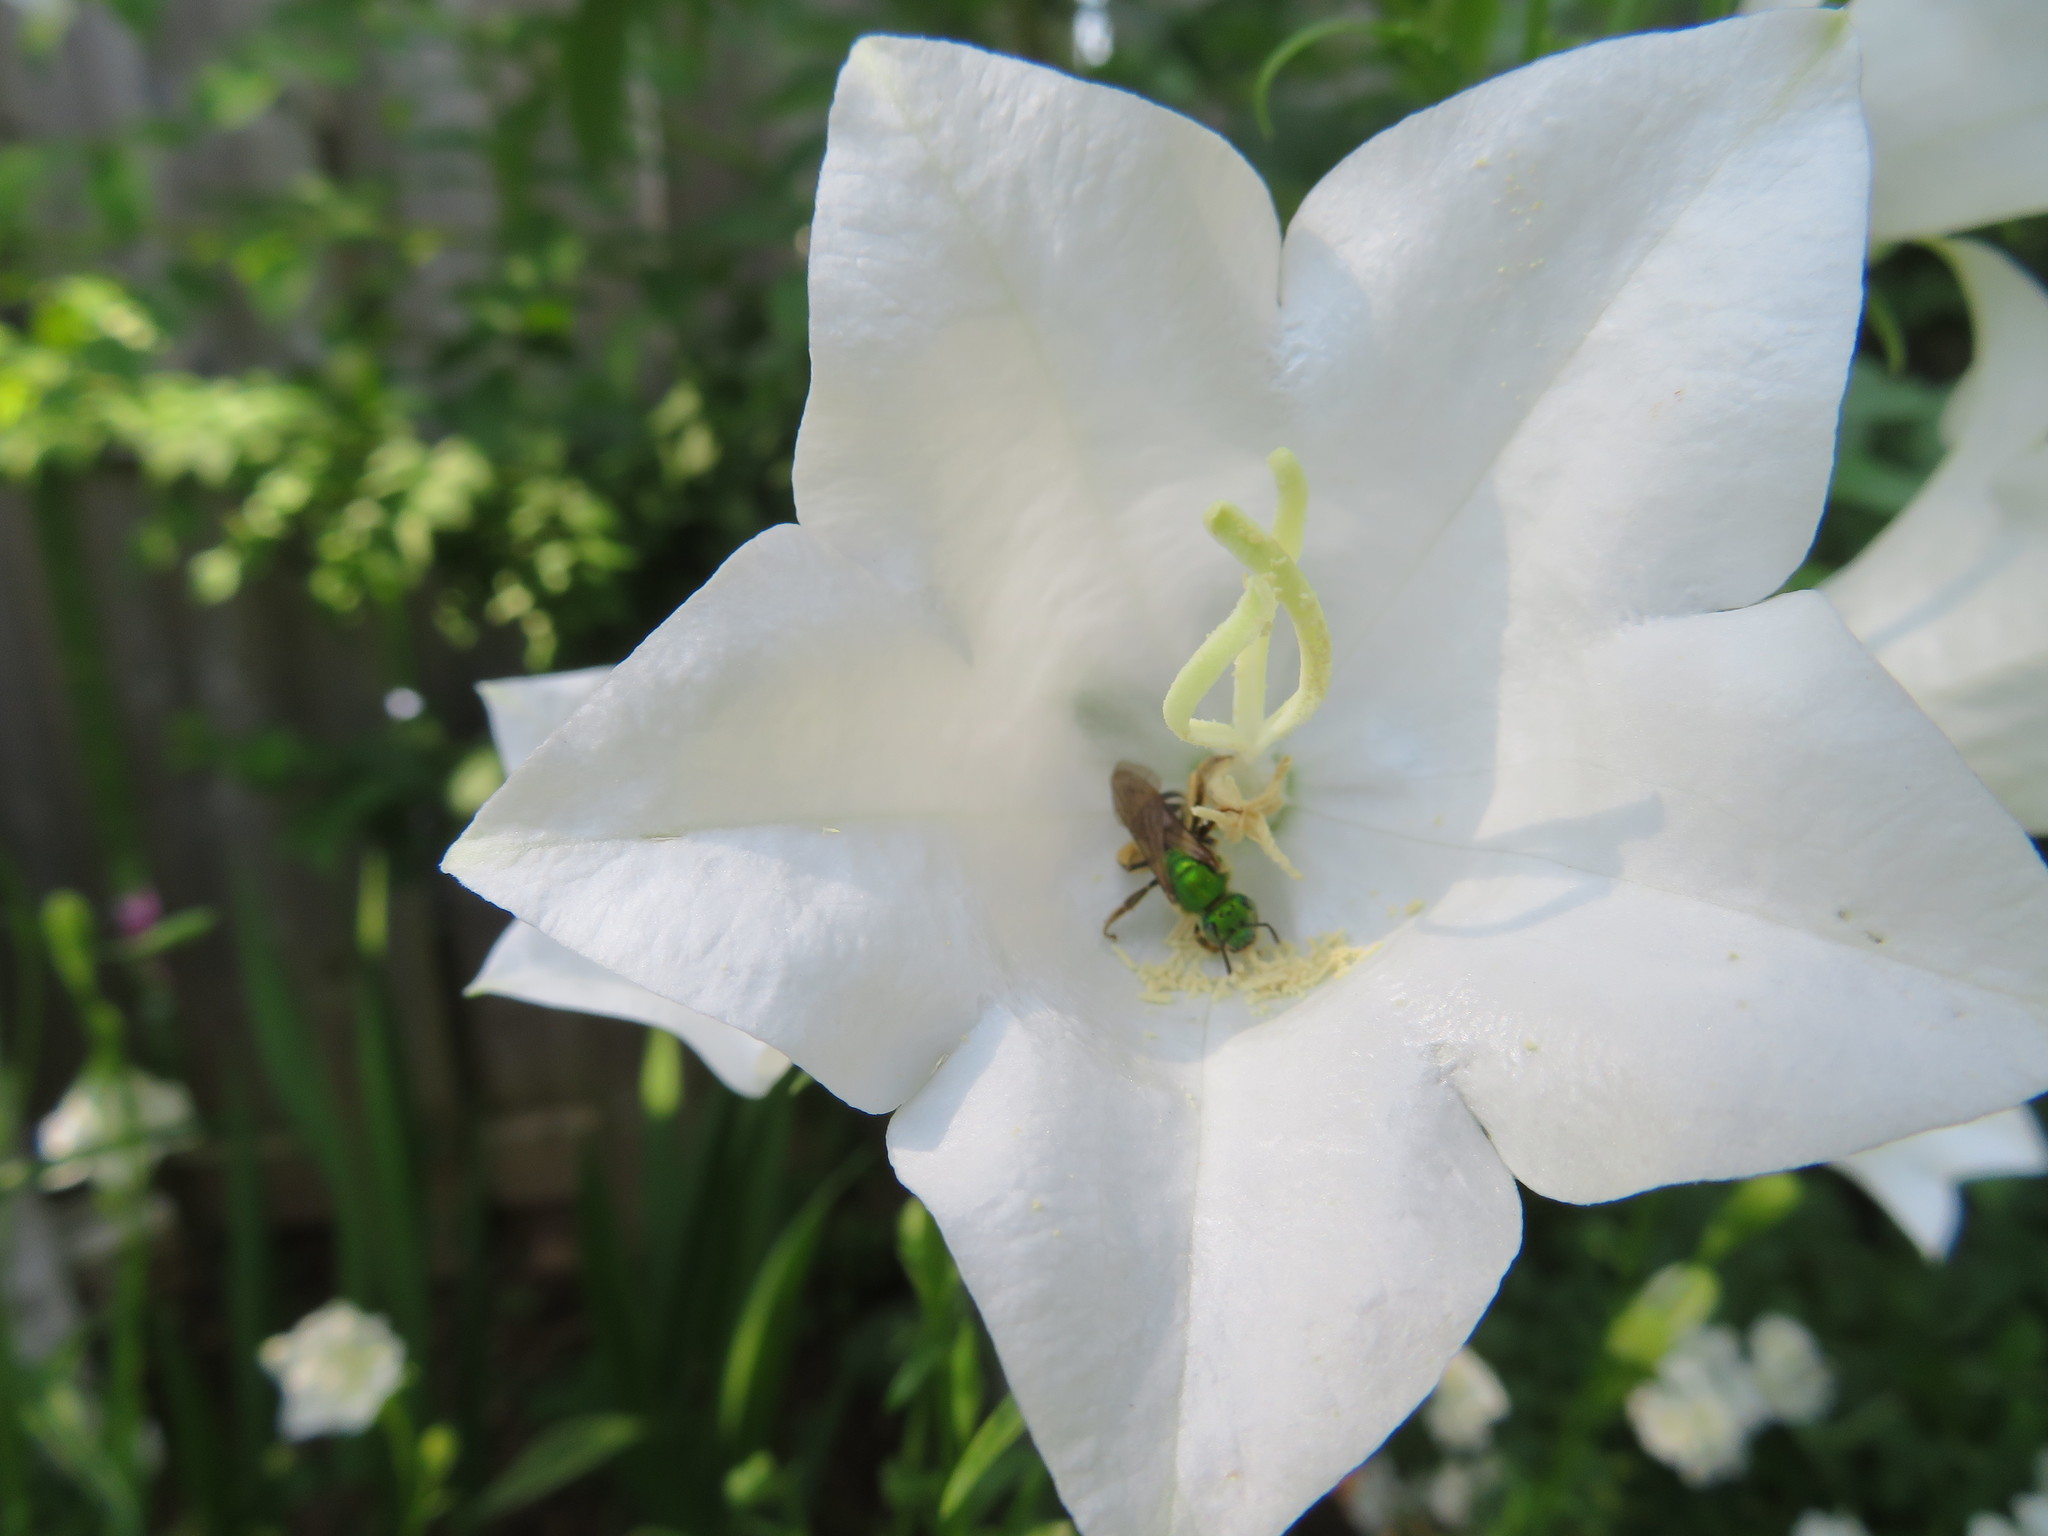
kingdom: Animalia
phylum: Arthropoda
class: Insecta
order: Hymenoptera
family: Halictidae
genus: Agapostemon
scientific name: Agapostemon virescens
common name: Bicolored striped sweat bee
